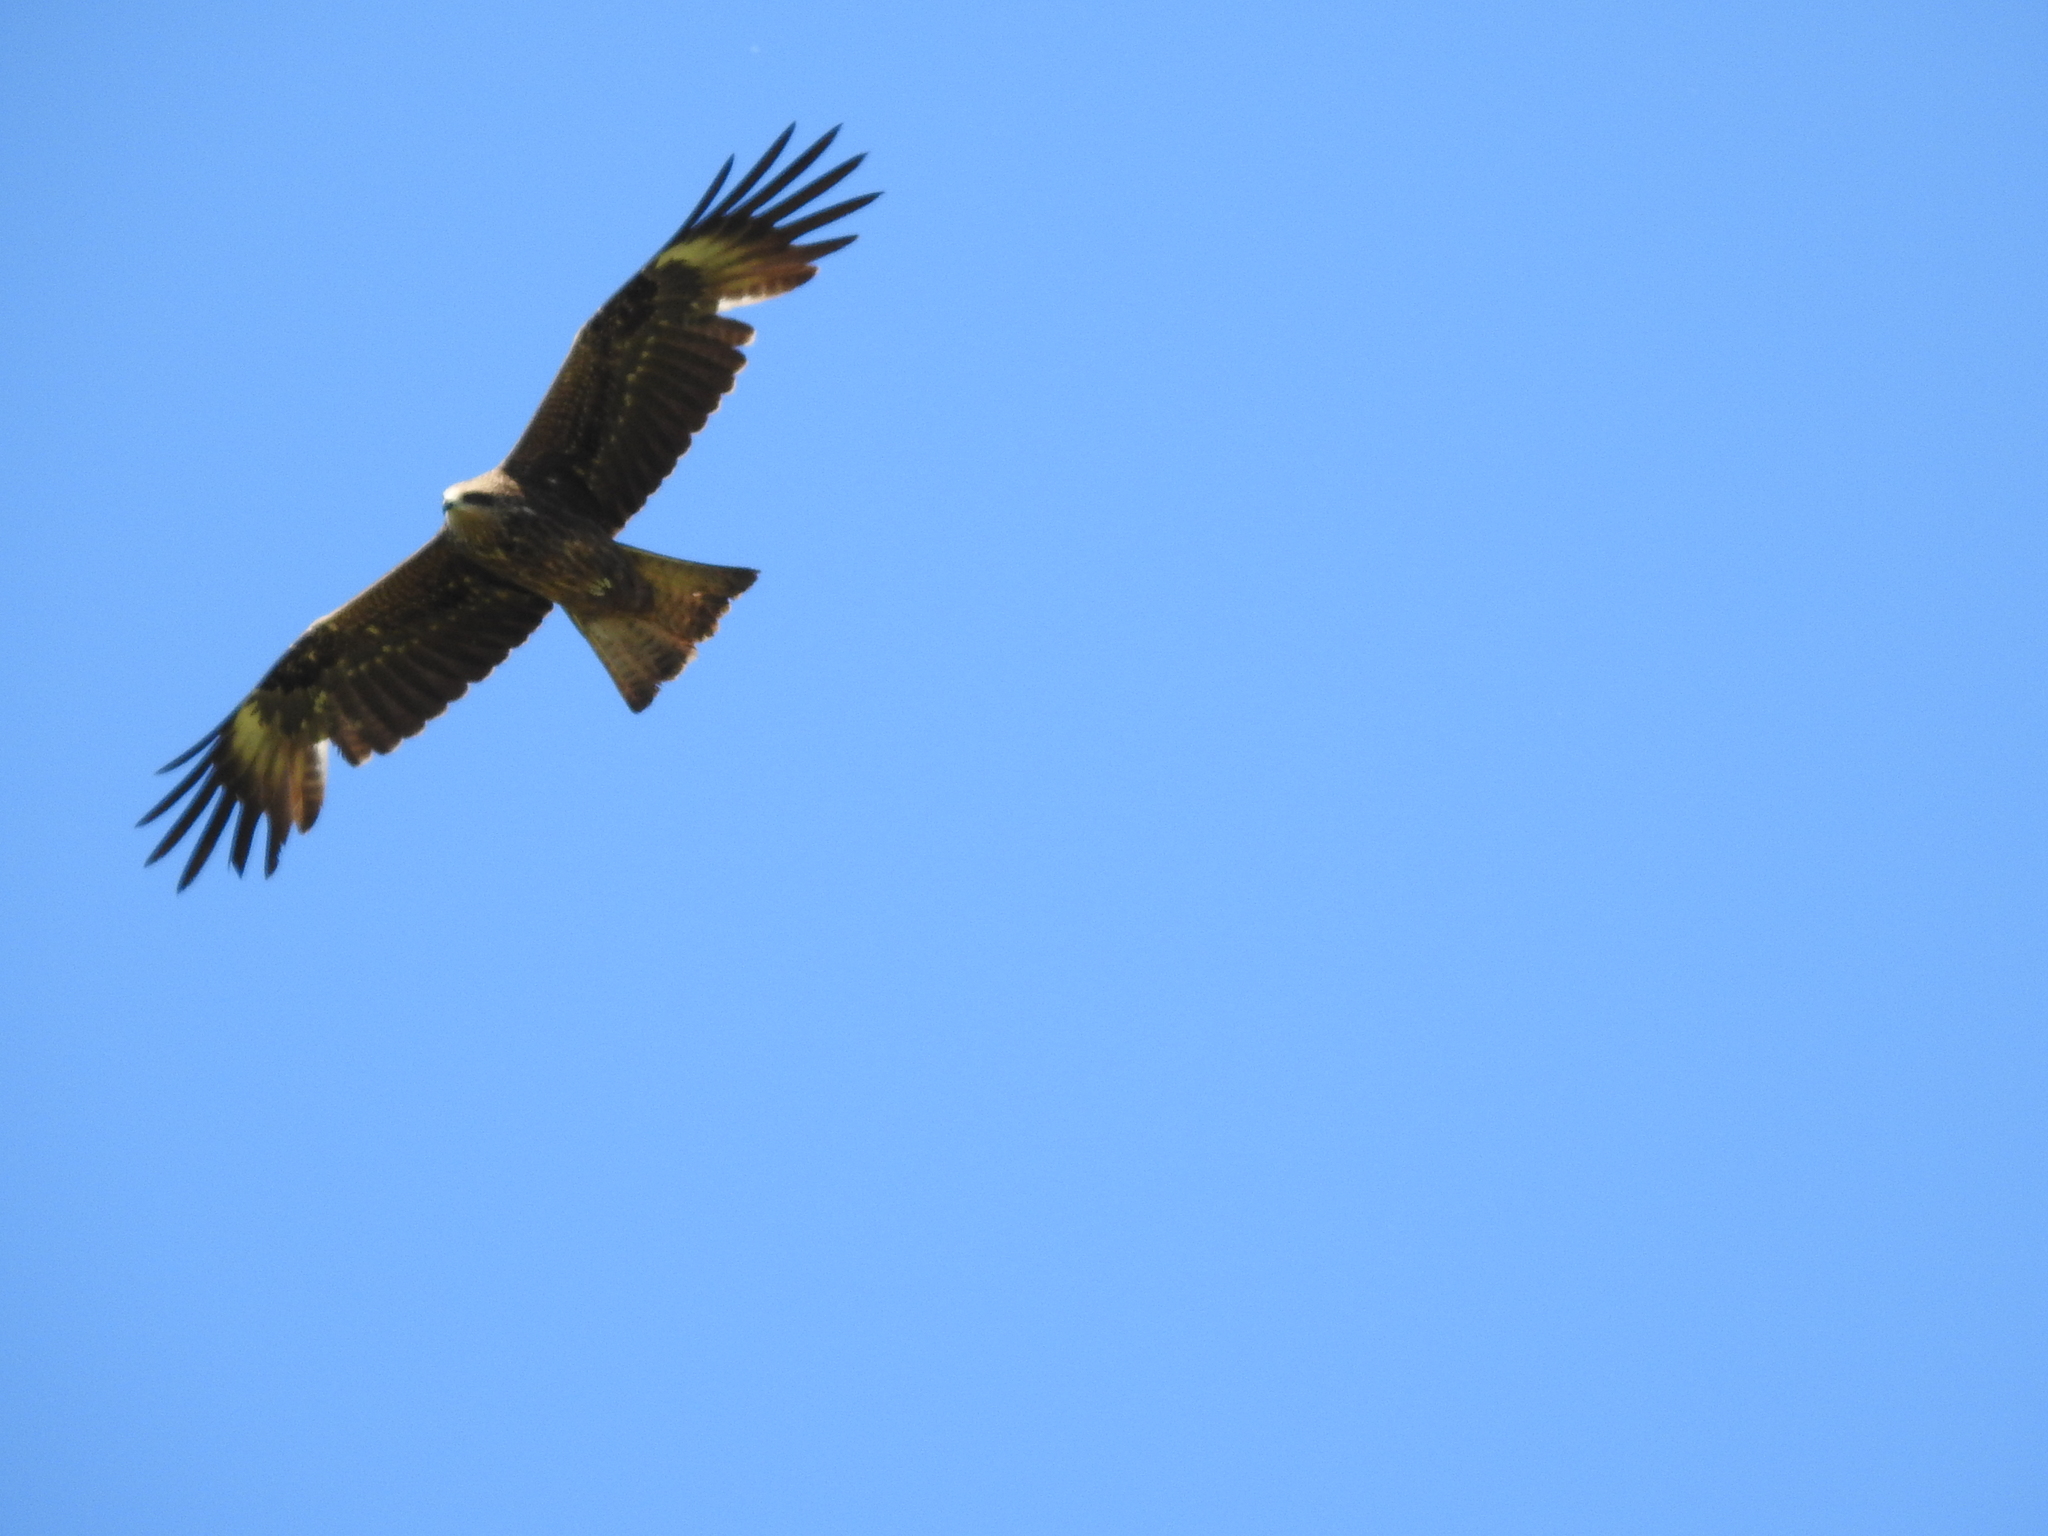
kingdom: Animalia
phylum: Chordata
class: Aves
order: Accipitriformes
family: Accipitridae
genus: Milvus
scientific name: Milvus migrans
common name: Black kite
